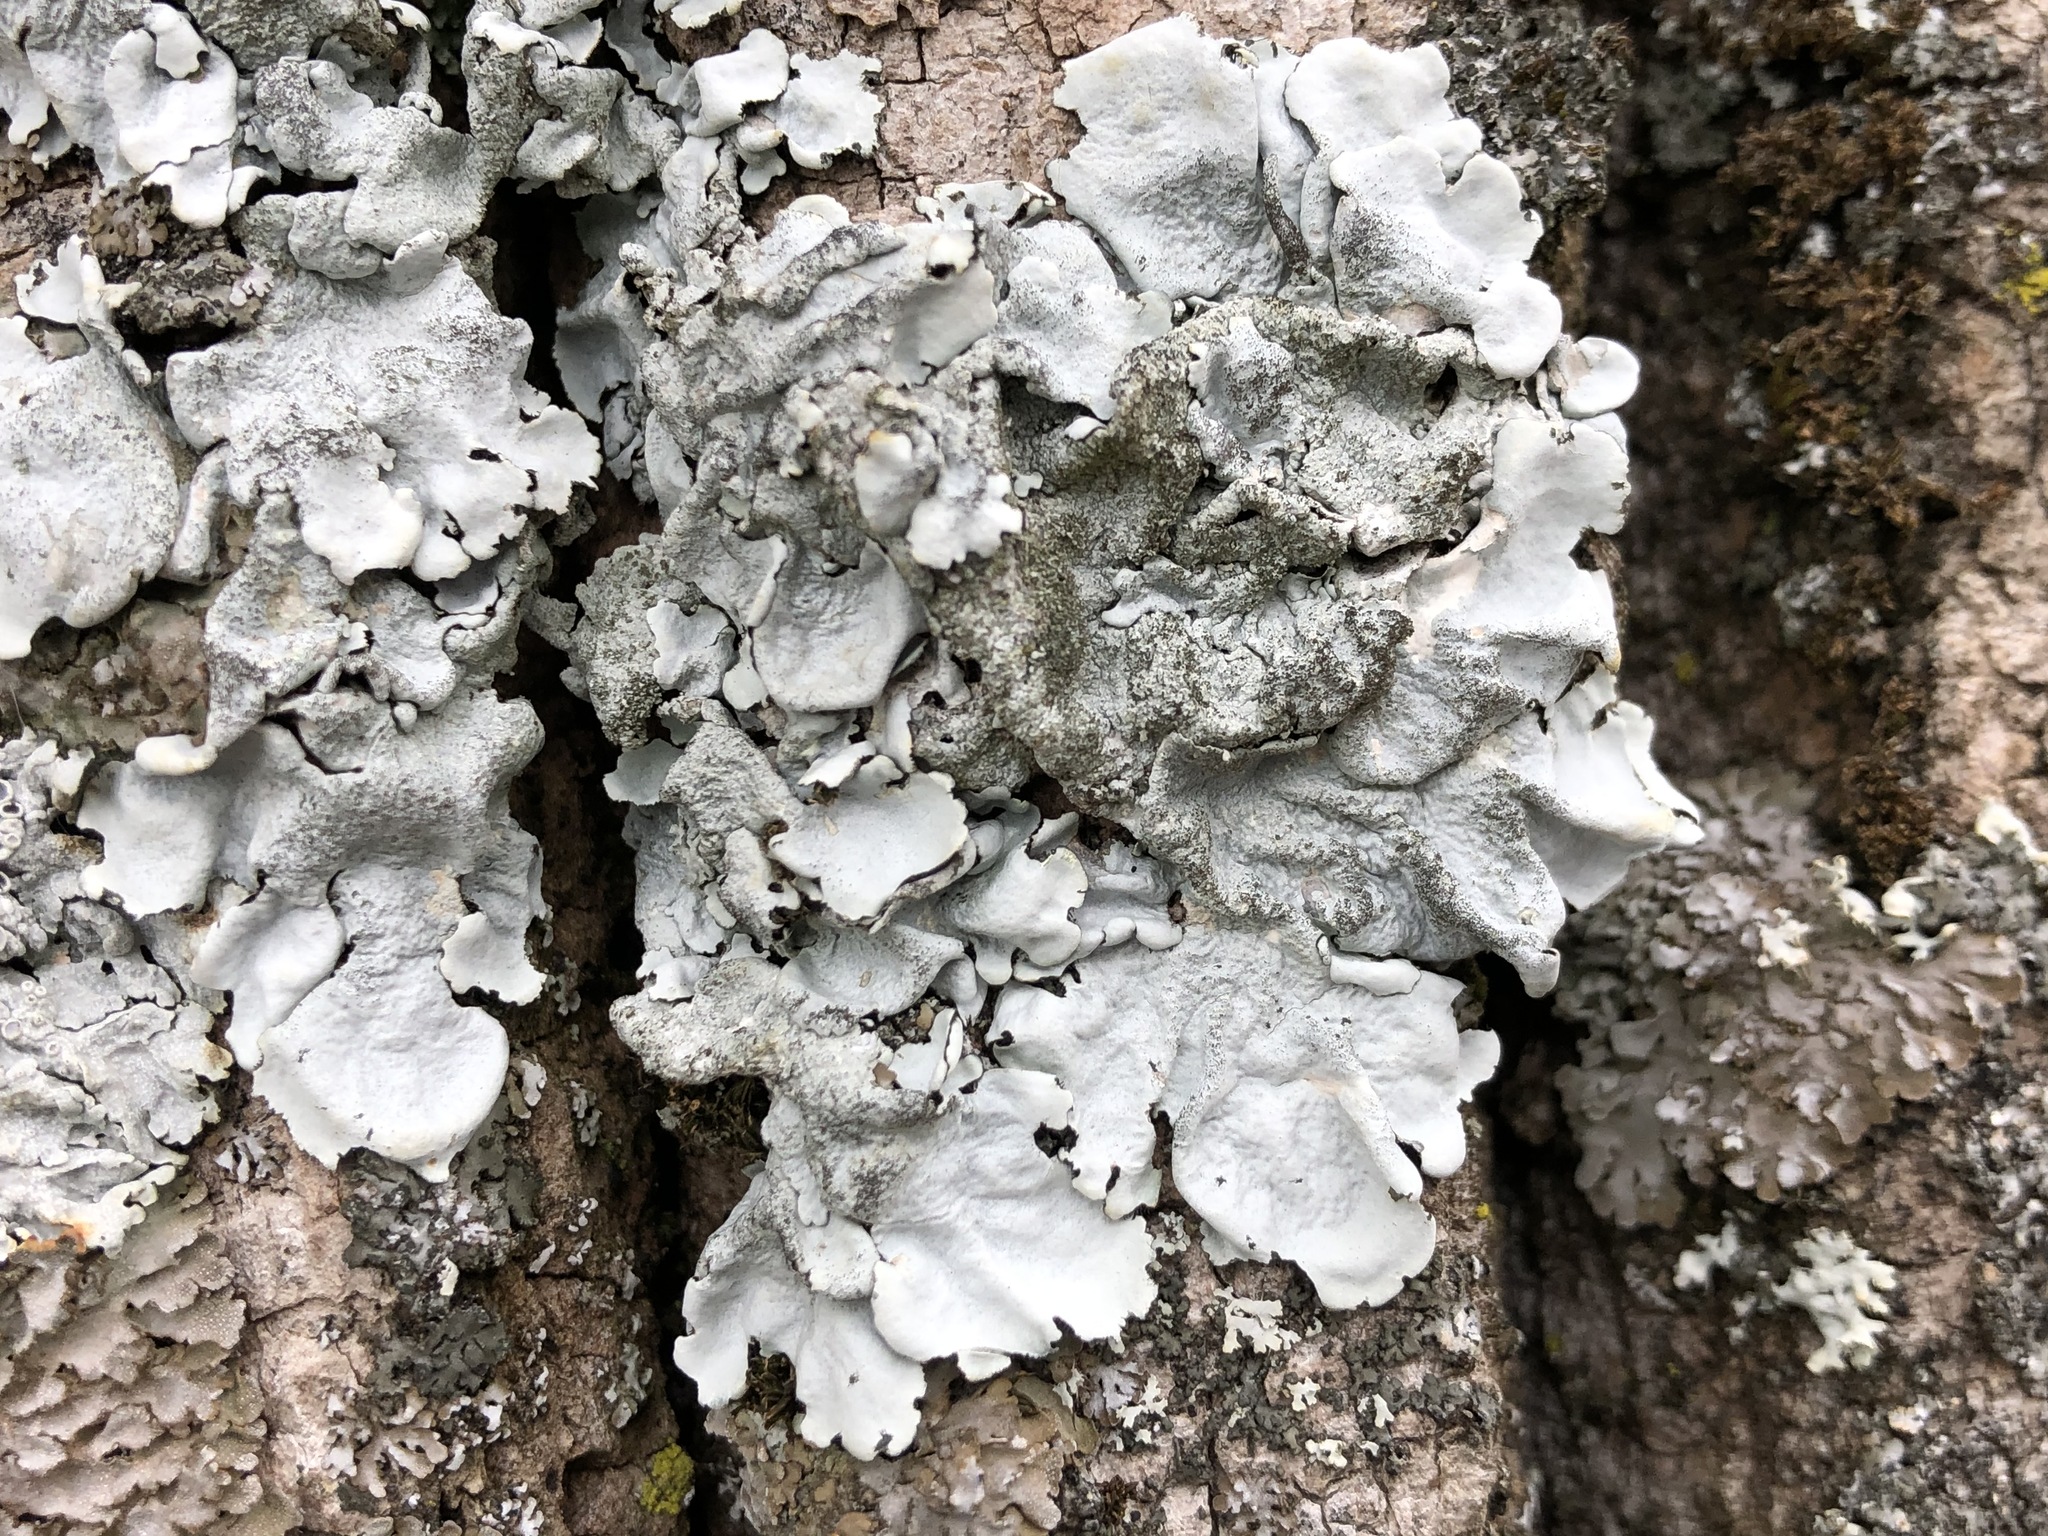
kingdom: Fungi
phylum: Ascomycota
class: Lecanoromycetes
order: Lecanorales
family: Parmeliaceae
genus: Parmelina
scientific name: Parmelina tiliacea
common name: Linden shield lichen
